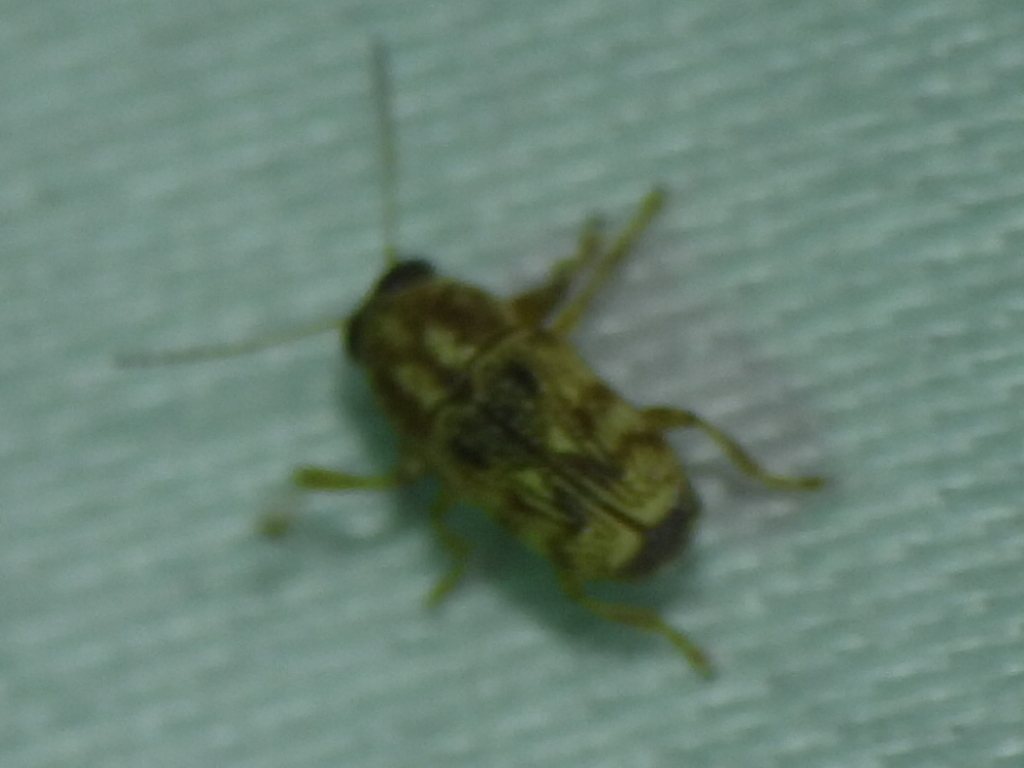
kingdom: Animalia
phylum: Arthropoda
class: Insecta
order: Coleoptera
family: Chrysomelidae
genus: Pachybrachis
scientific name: Pachybrachis texanus
